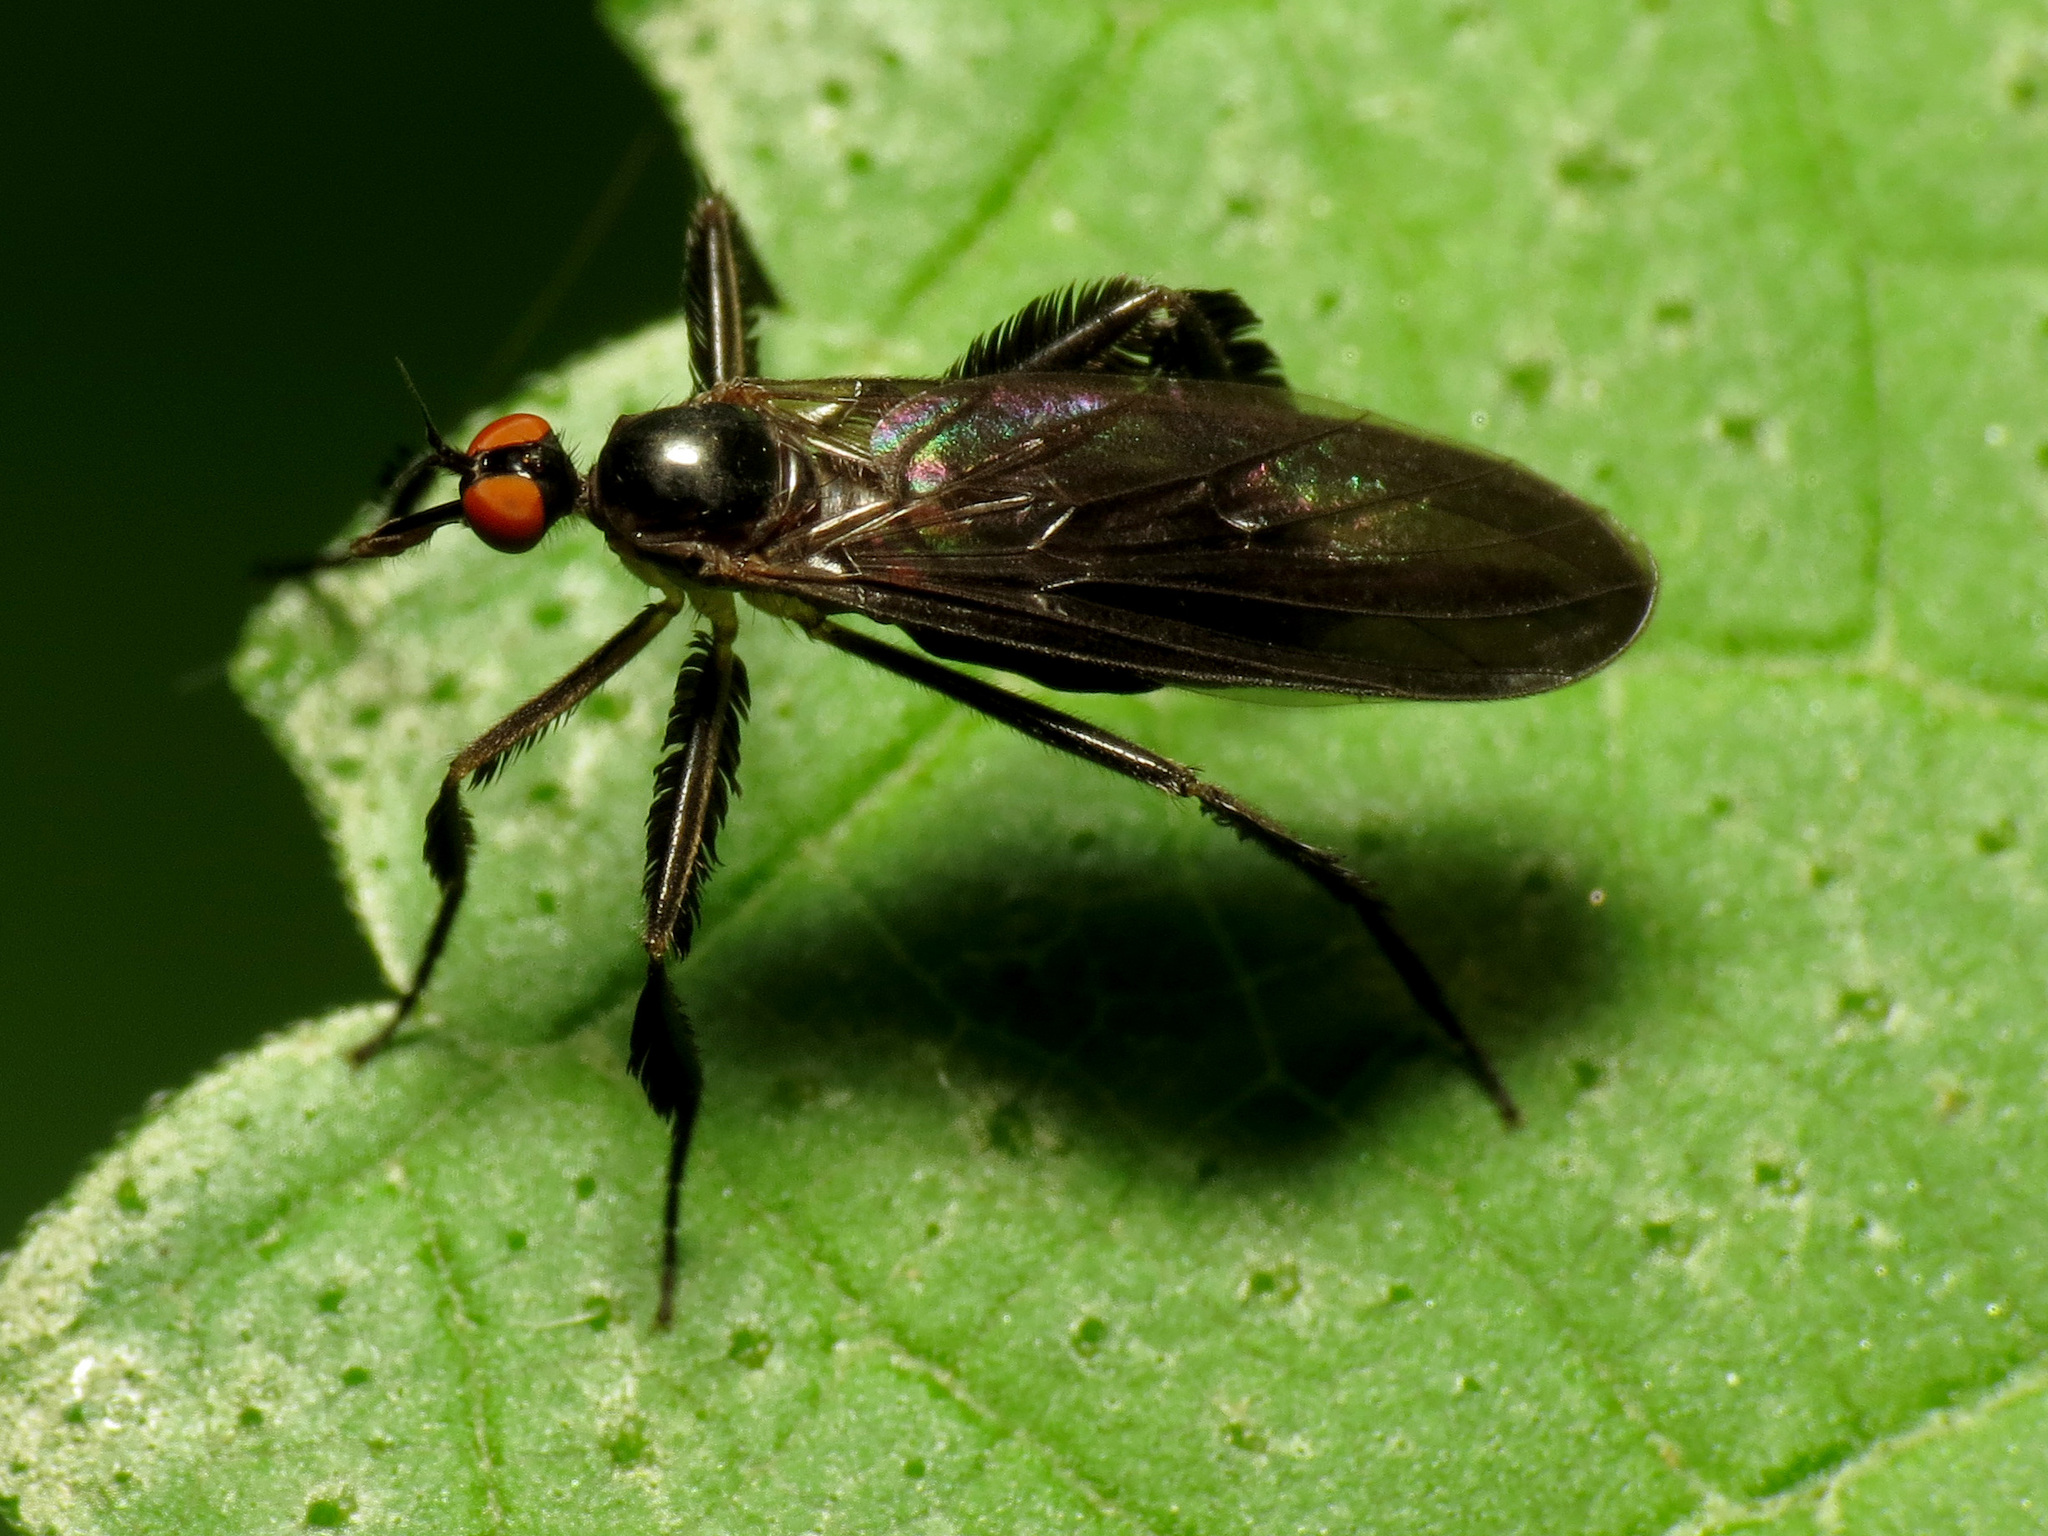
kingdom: Animalia
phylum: Arthropoda
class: Insecta
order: Diptera
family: Empididae
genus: Rhamphomyia
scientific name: Rhamphomyia longicauda
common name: Long-tailed dance fly
